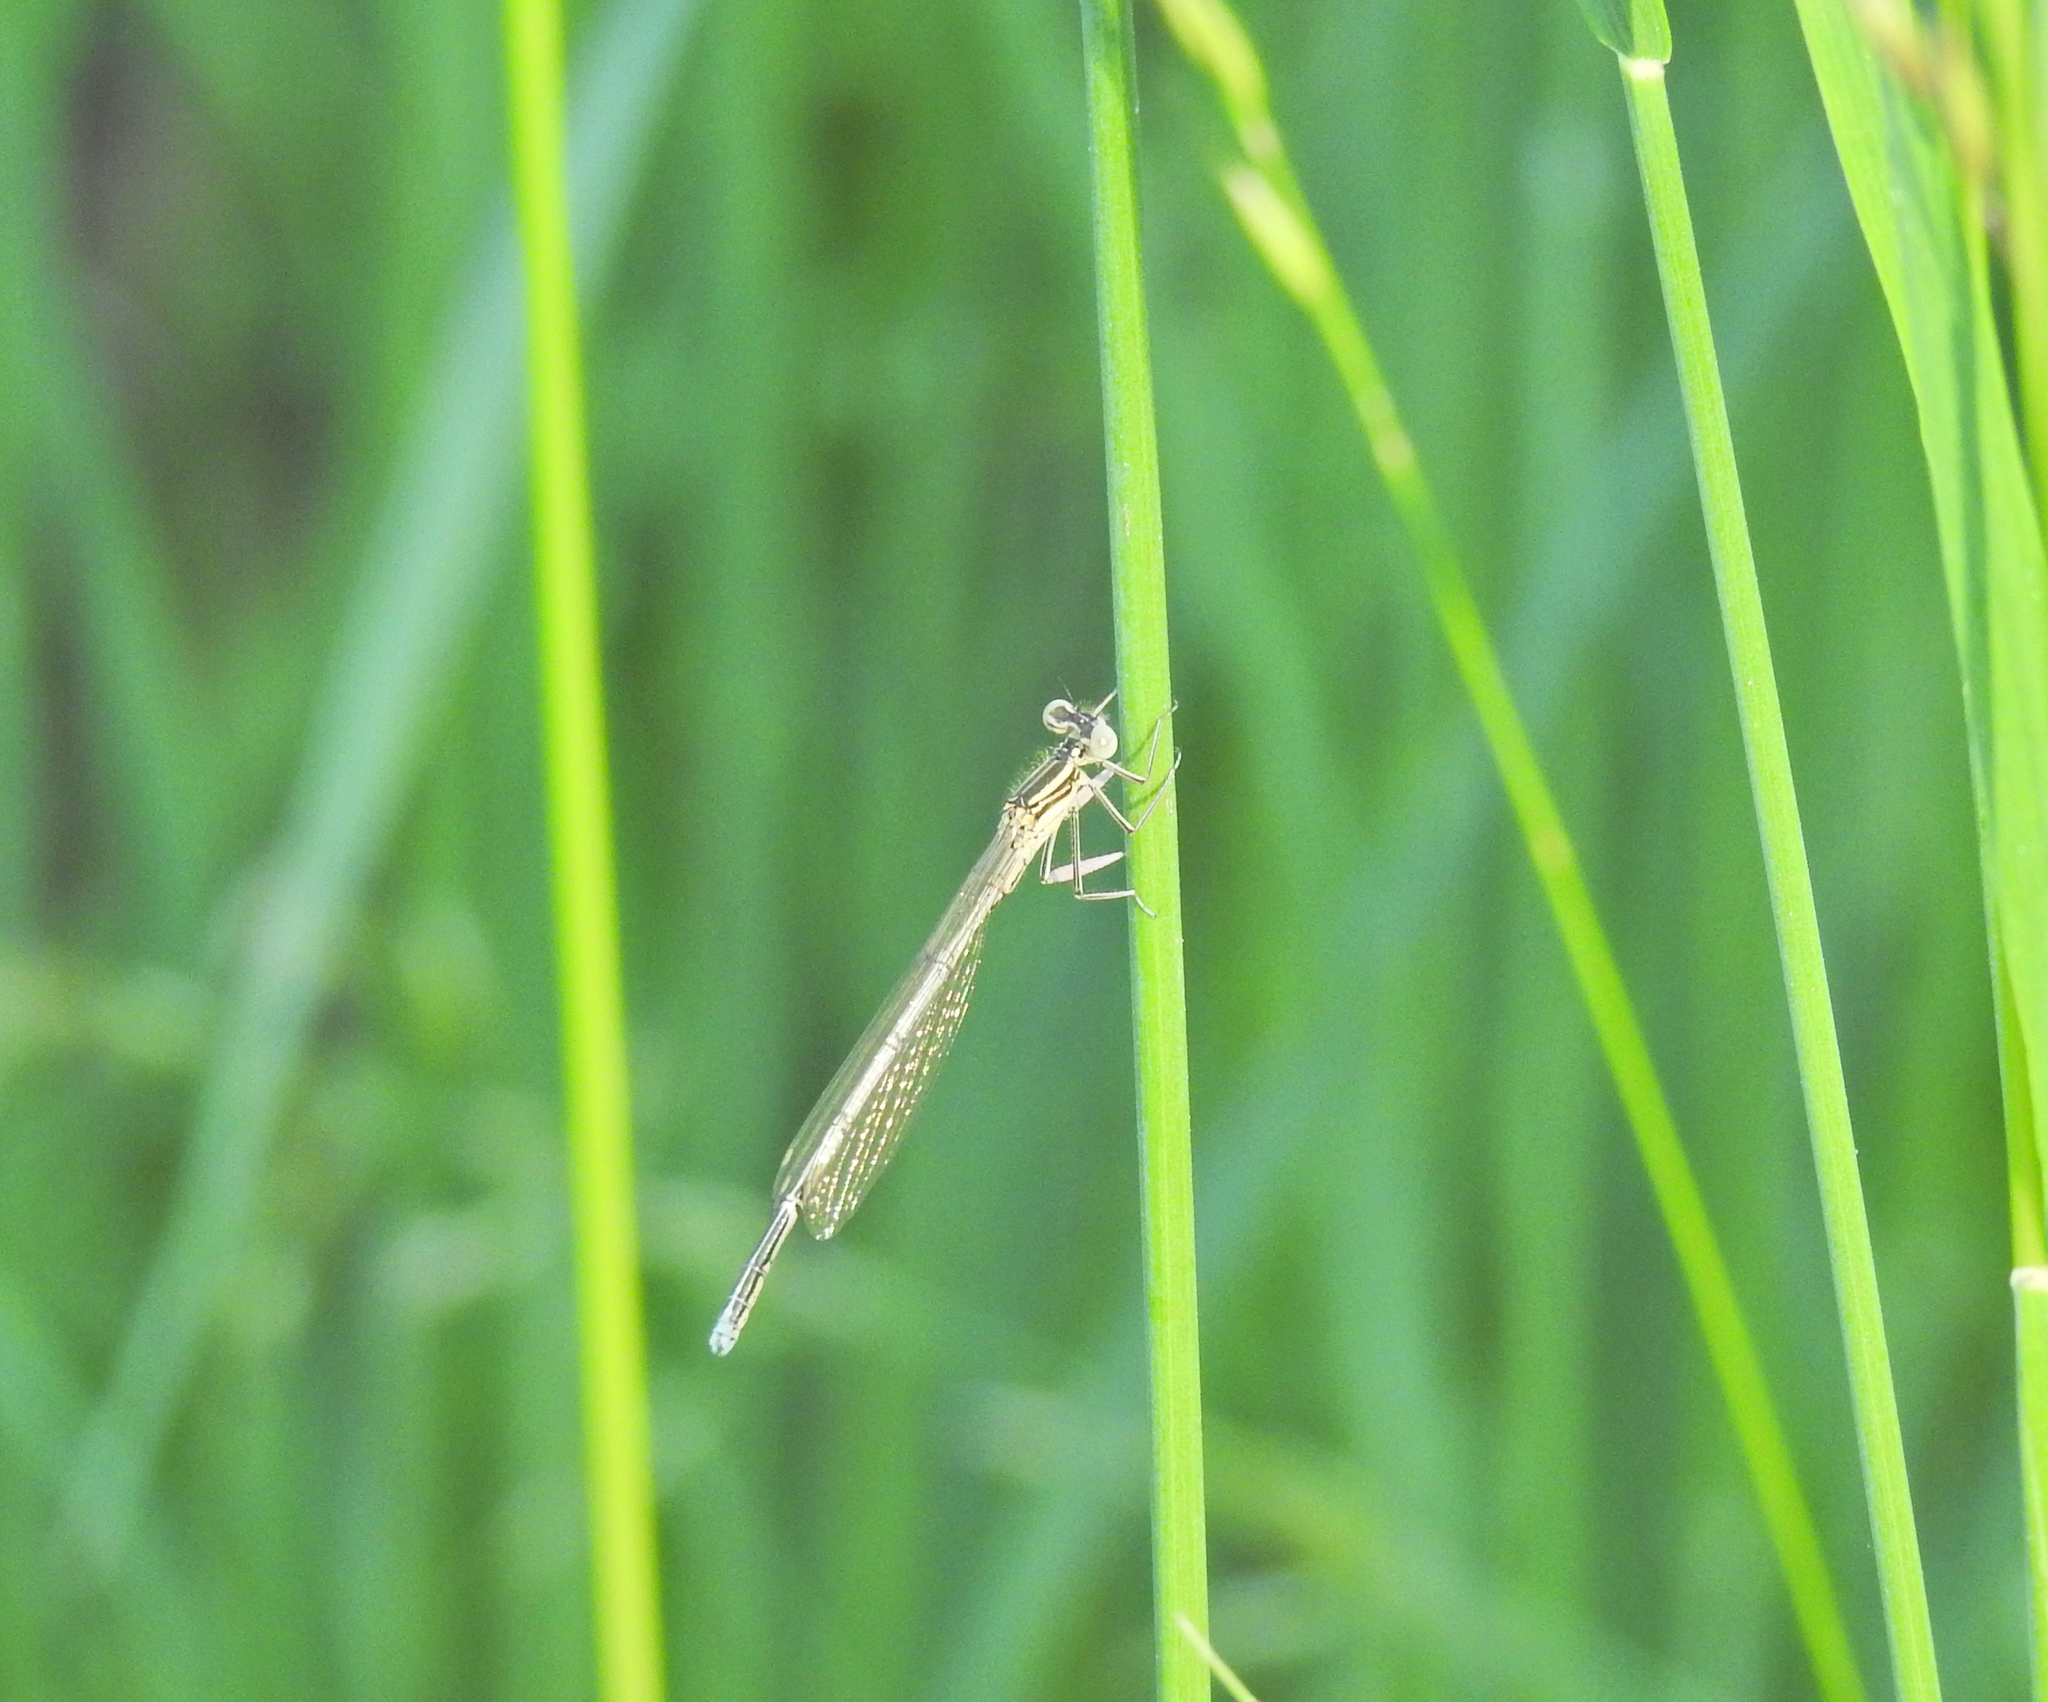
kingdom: Animalia
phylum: Arthropoda
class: Insecta
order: Odonata
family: Platycnemididae
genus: Platycnemis
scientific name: Platycnemis pennipes
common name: White-legged damselfly
